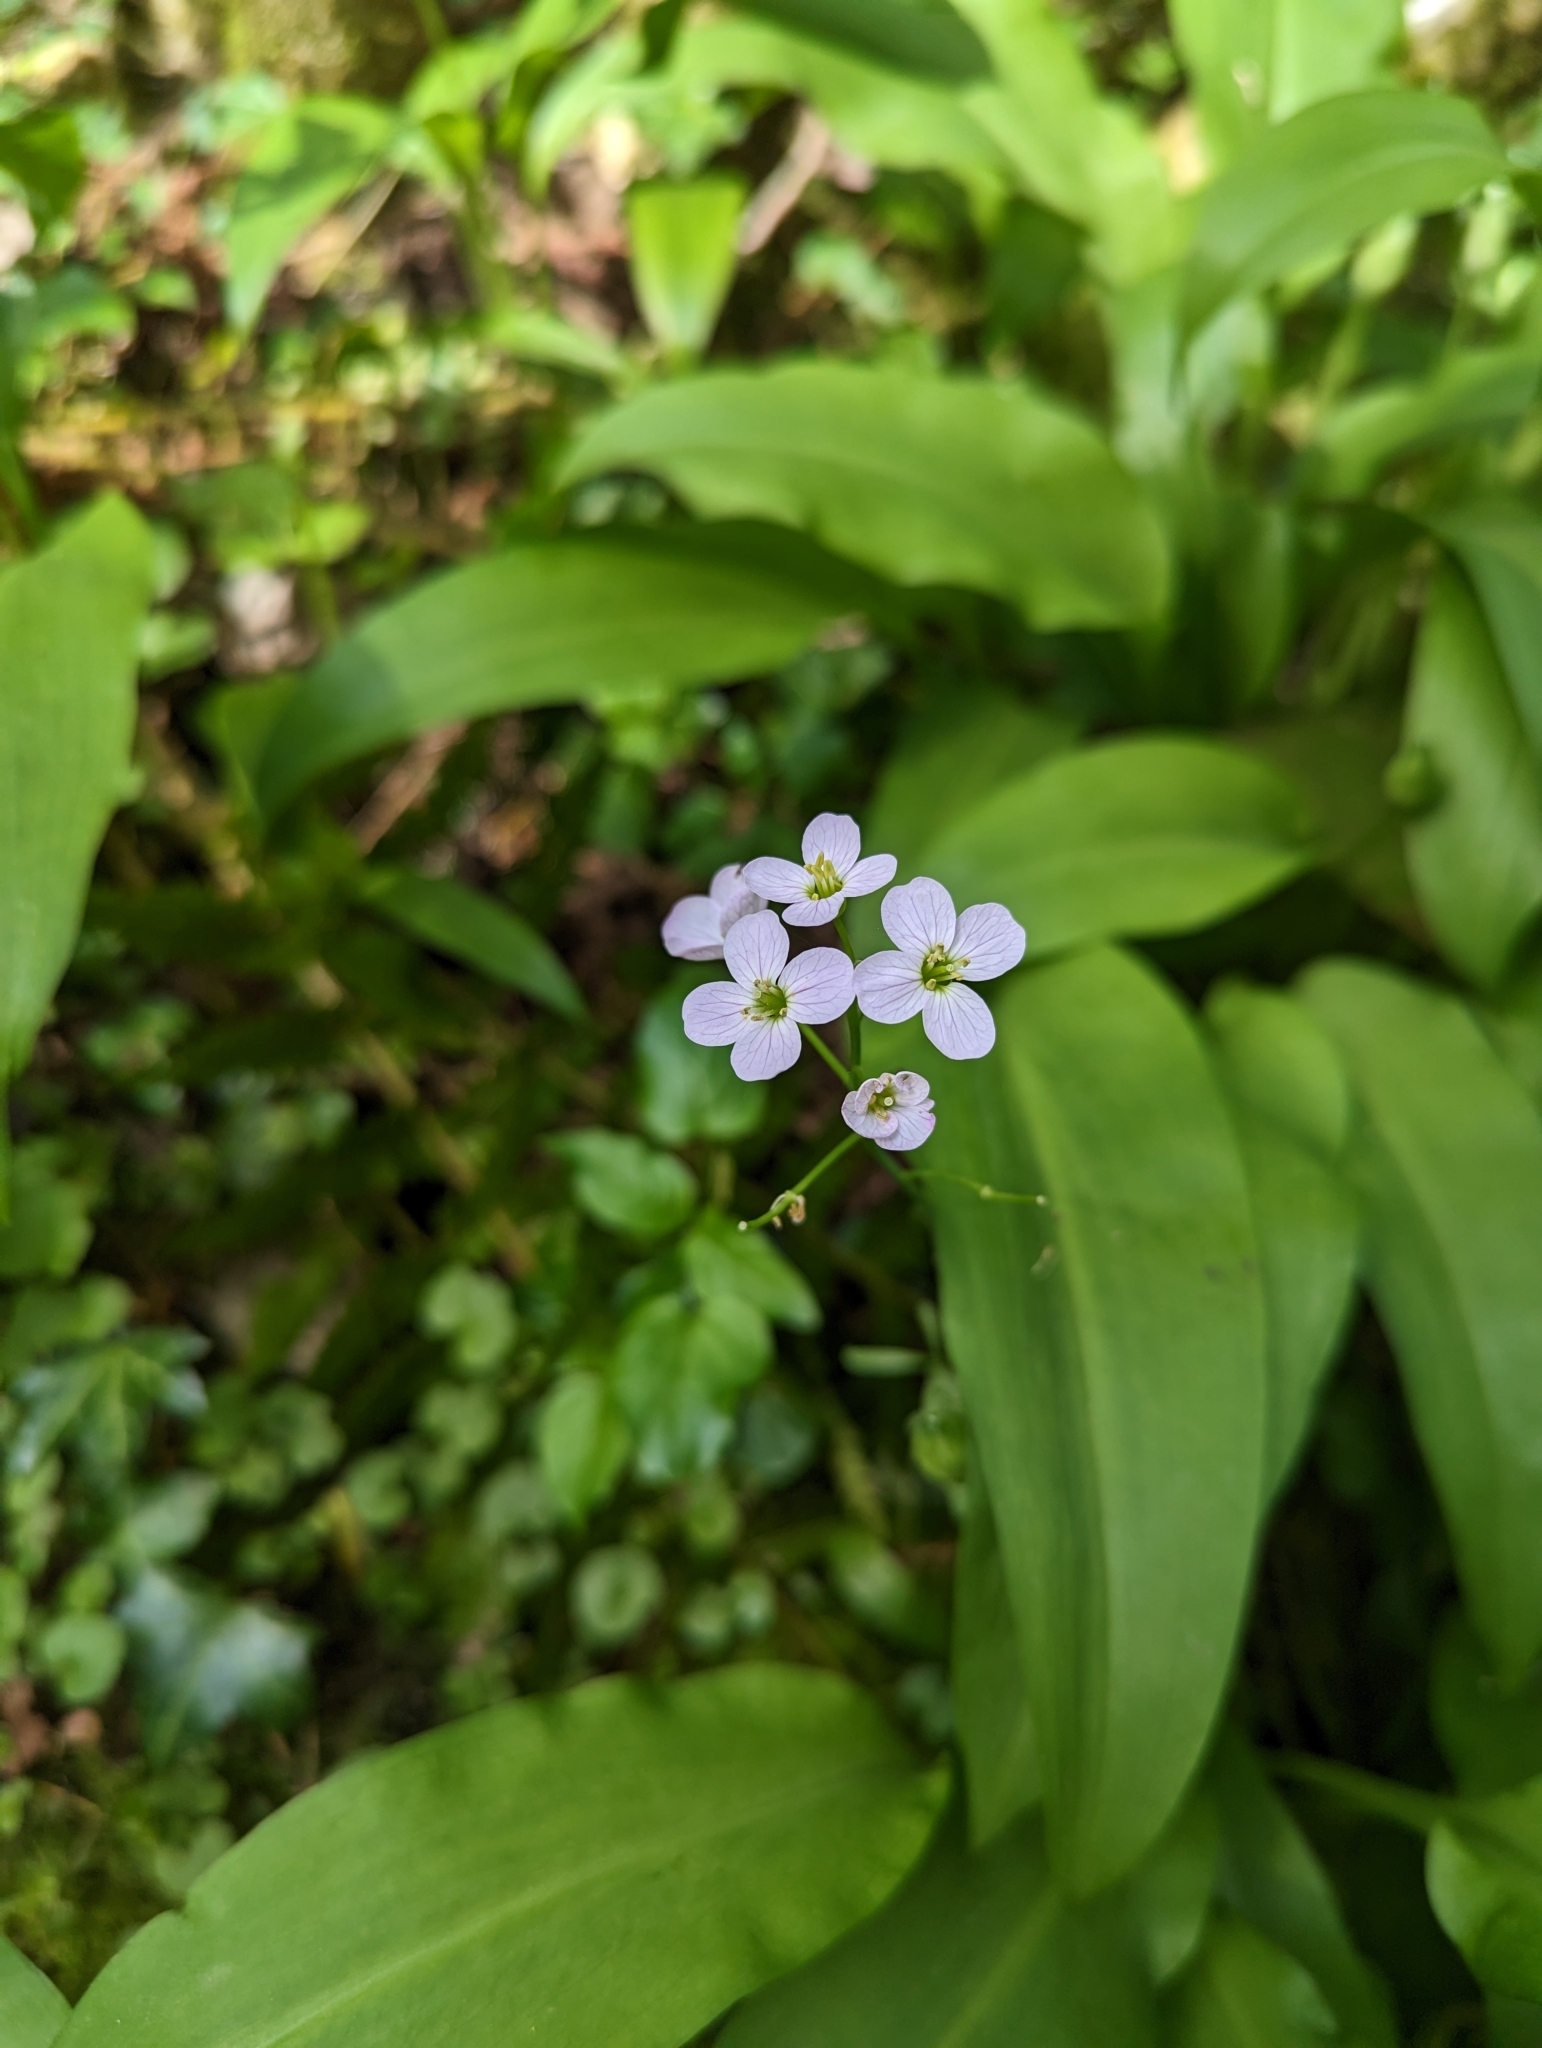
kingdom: Plantae
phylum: Tracheophyta
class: Magnoliopsida
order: Brassicales
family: Brassicaceae
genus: Cardamine
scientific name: Cardamine pratensis
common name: Cuckoo flower
